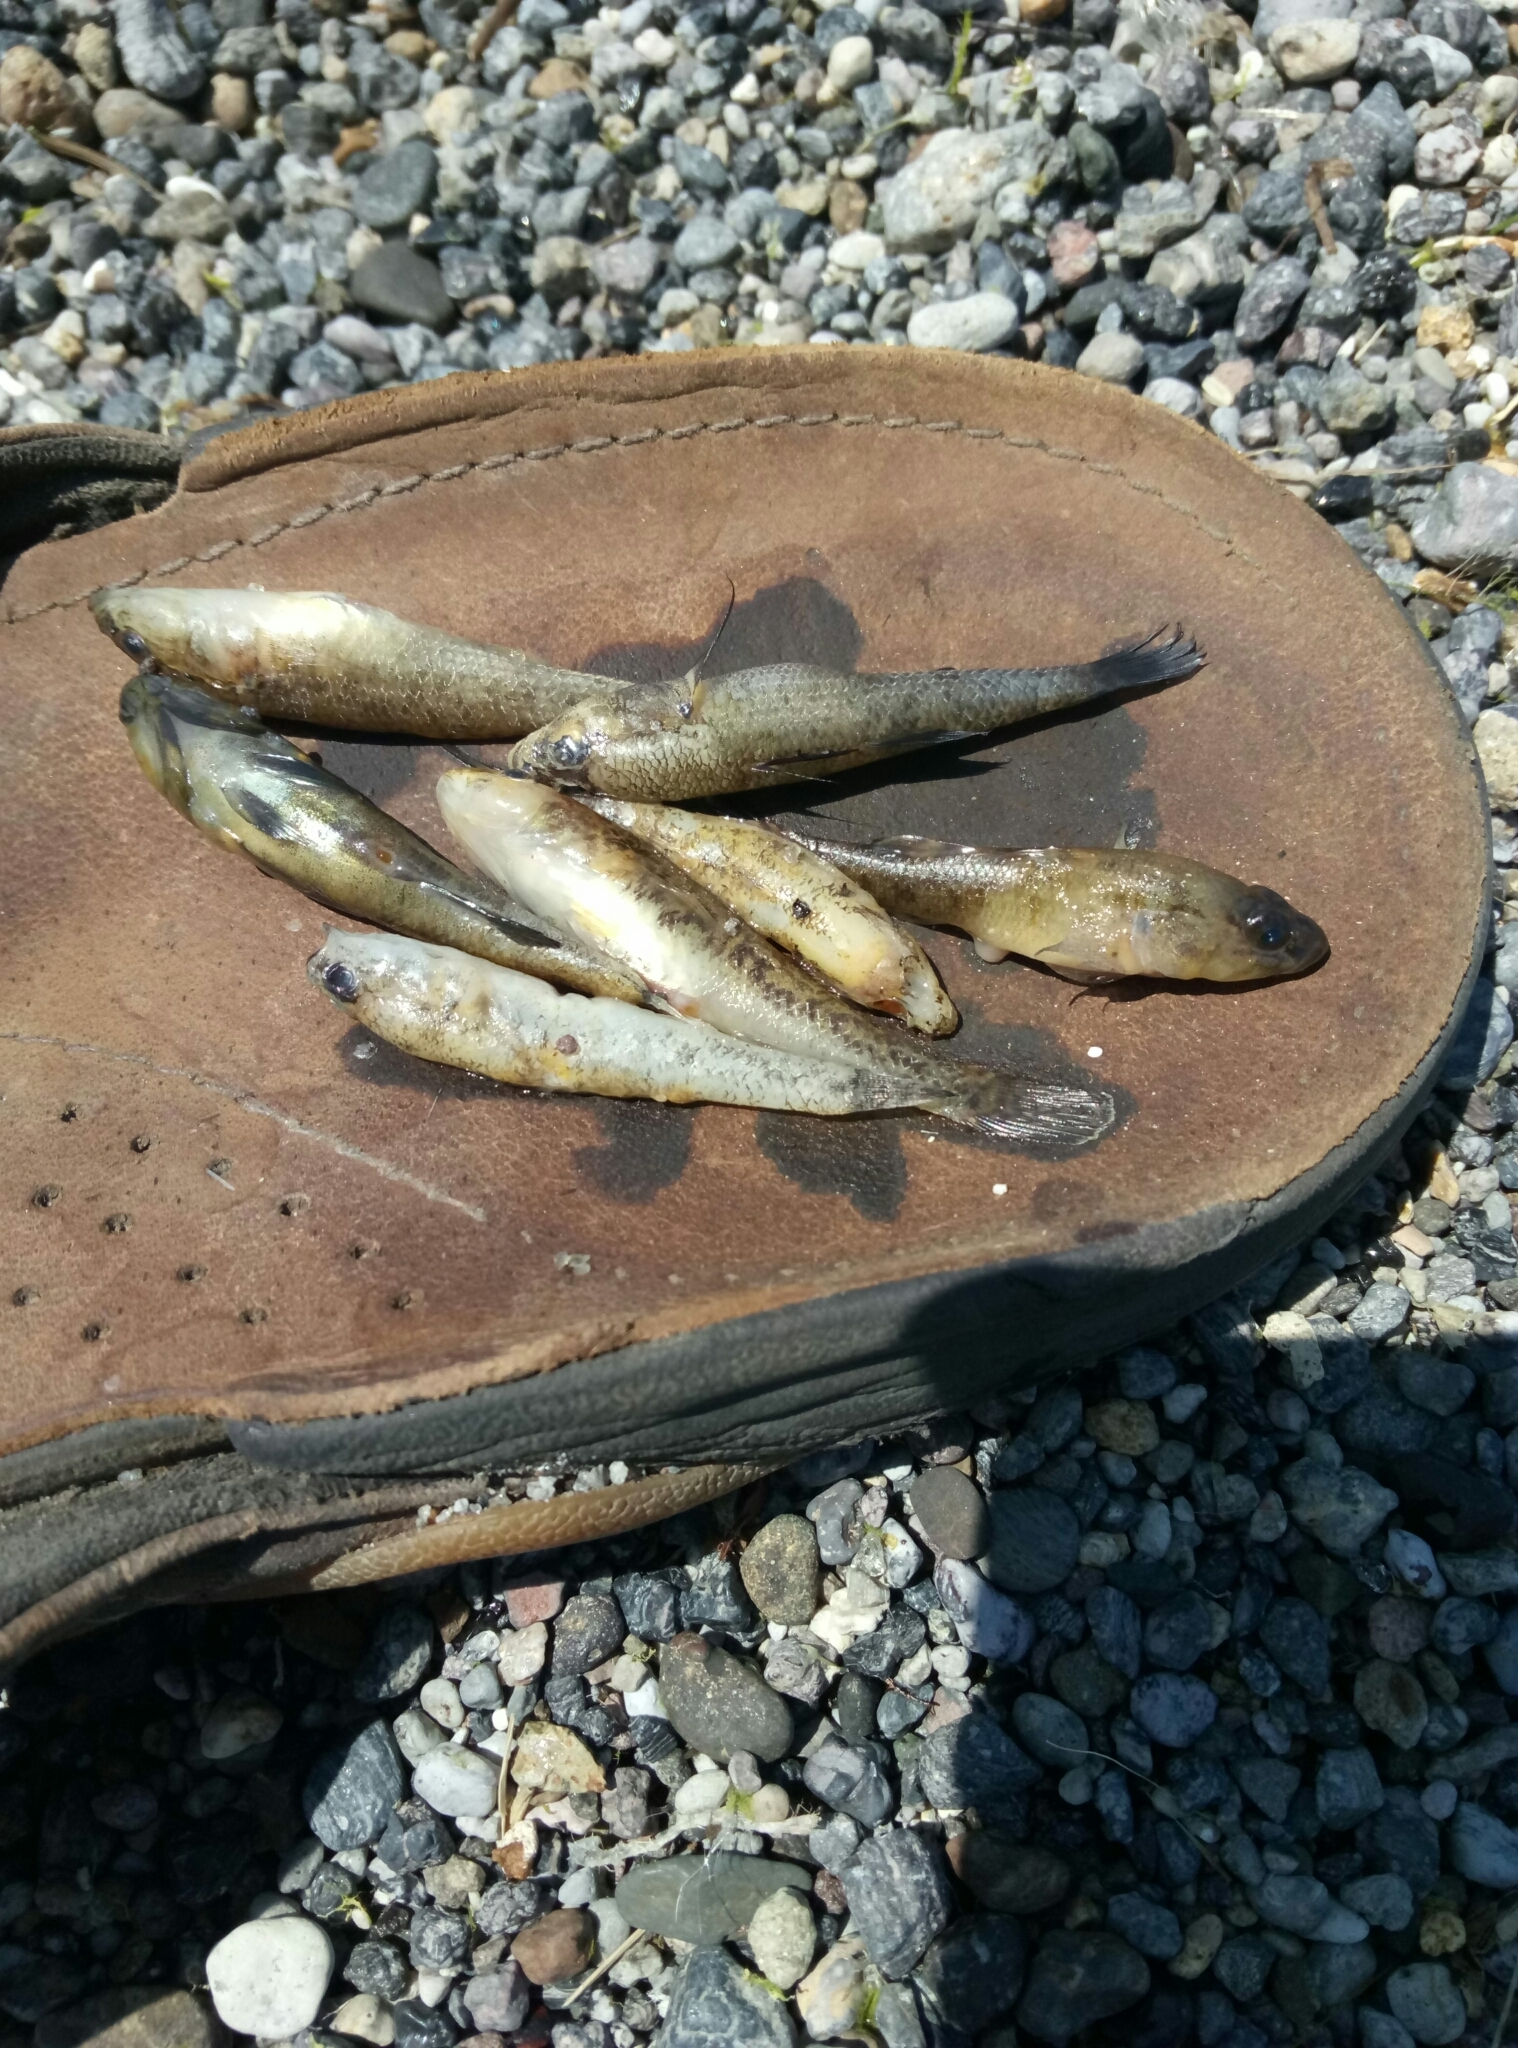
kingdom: Animalia
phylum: Chordata
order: Perciformes
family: Eleotridae
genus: Gobiomorphus
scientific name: Gobiomorphus cotidianus
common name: Common bully
